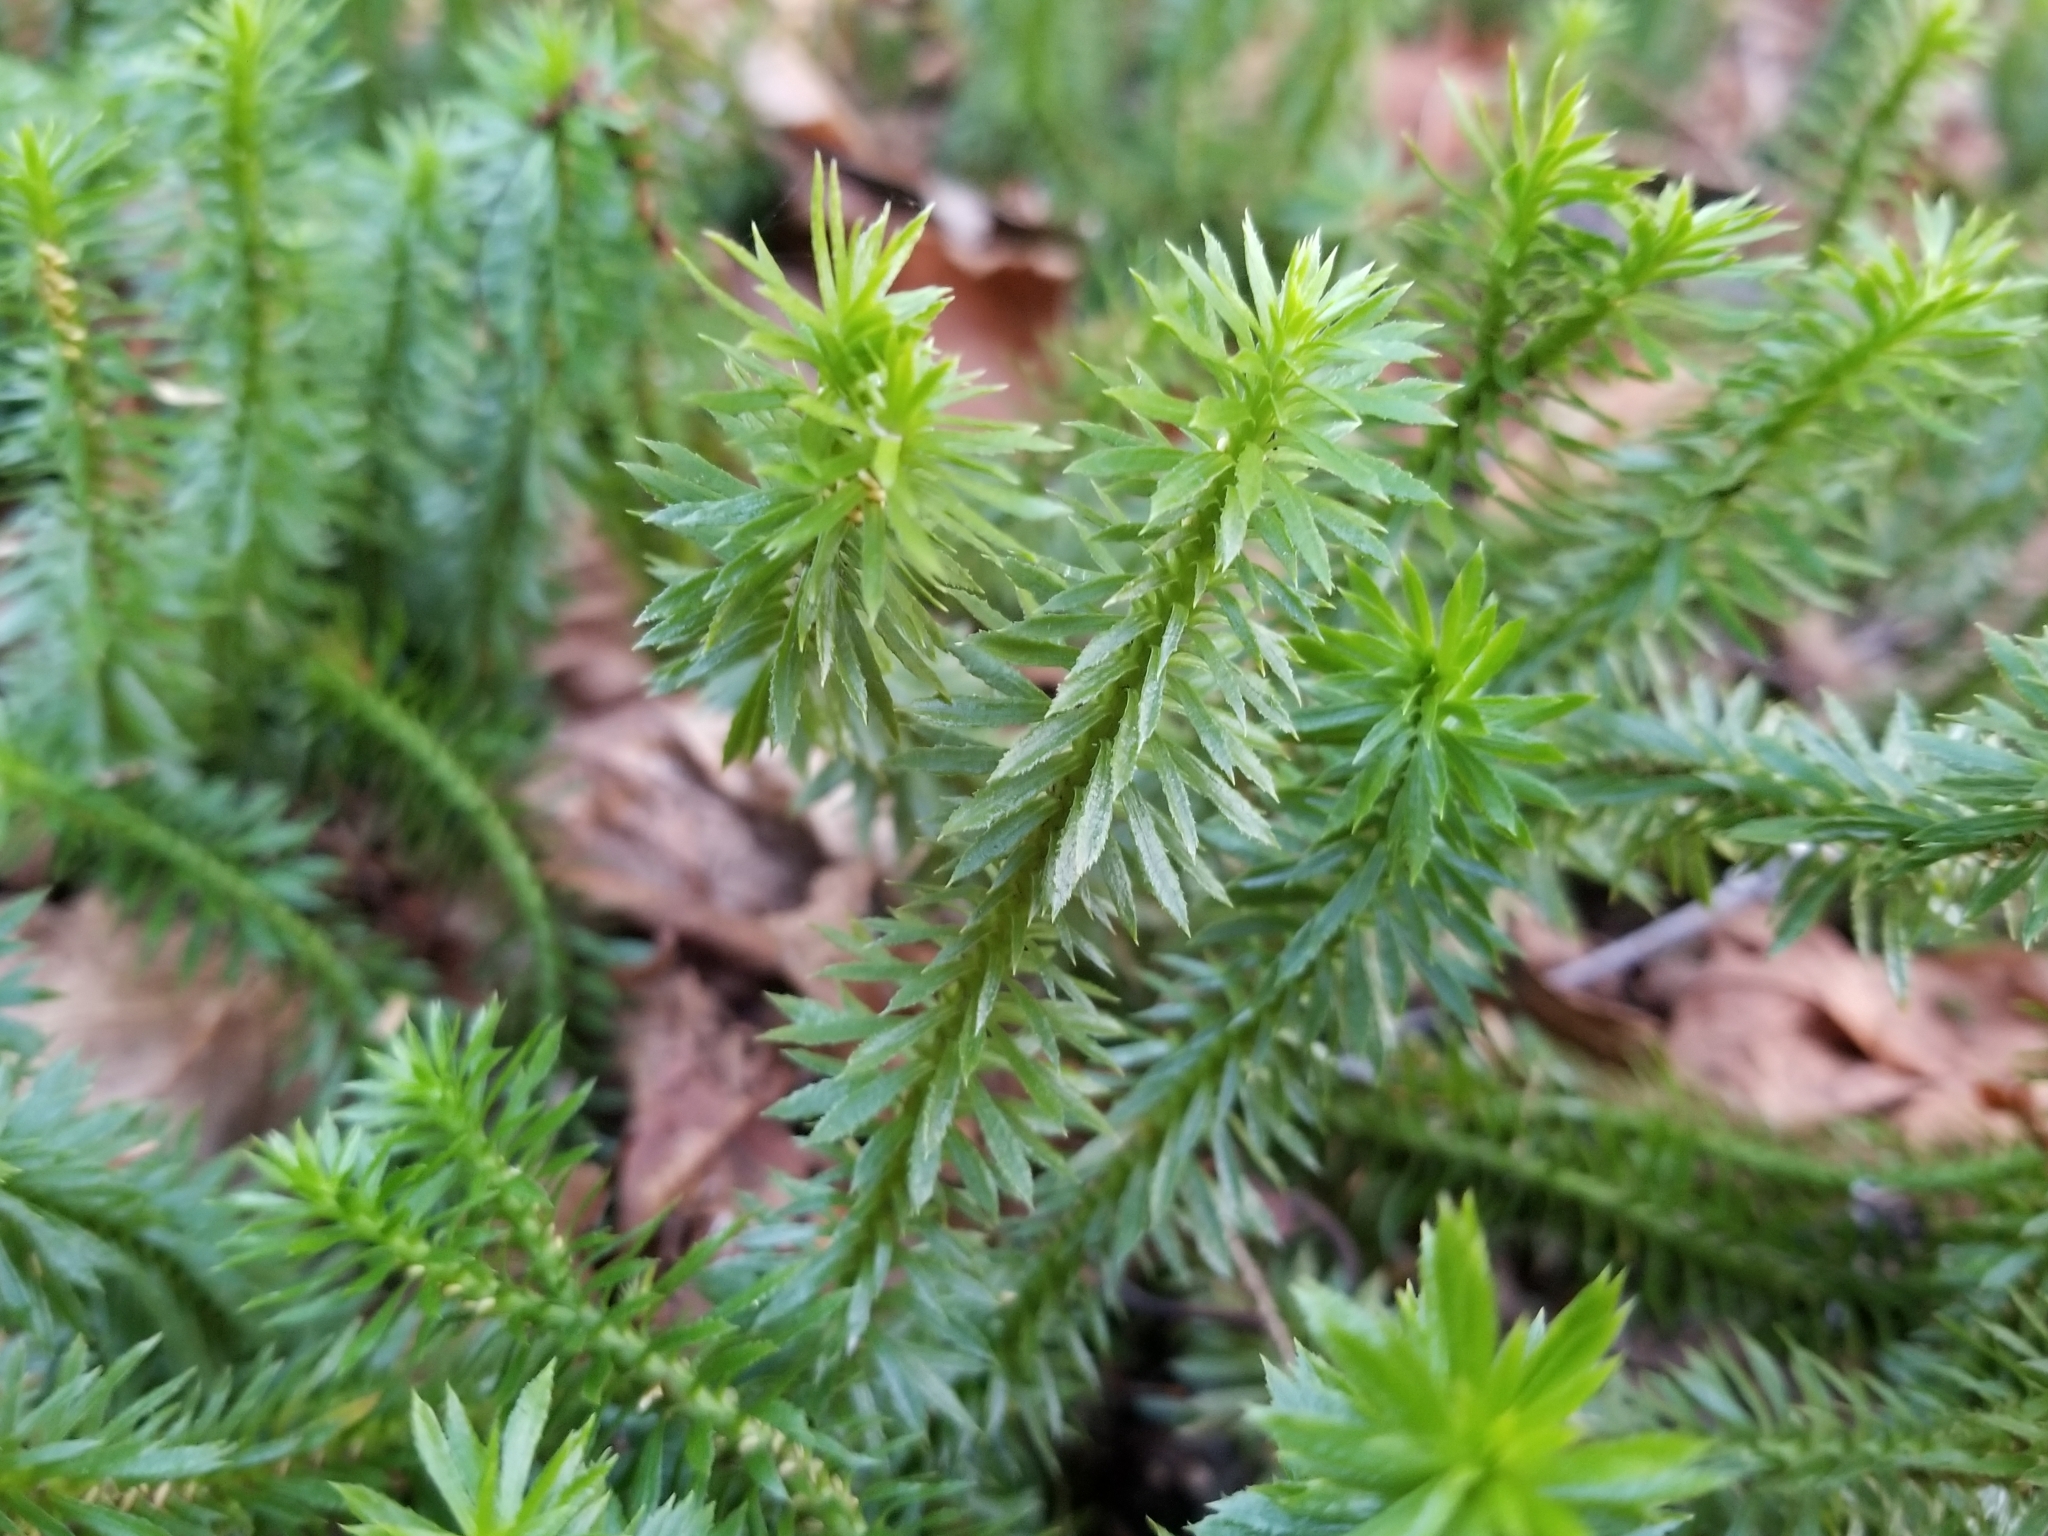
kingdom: Plantae
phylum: Tracheophyta
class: Lycopodiopsida
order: Lycopodiales
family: Lycopodiaceae
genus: Huperzia
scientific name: Huperzia lucidula
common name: Shining clubmoss
